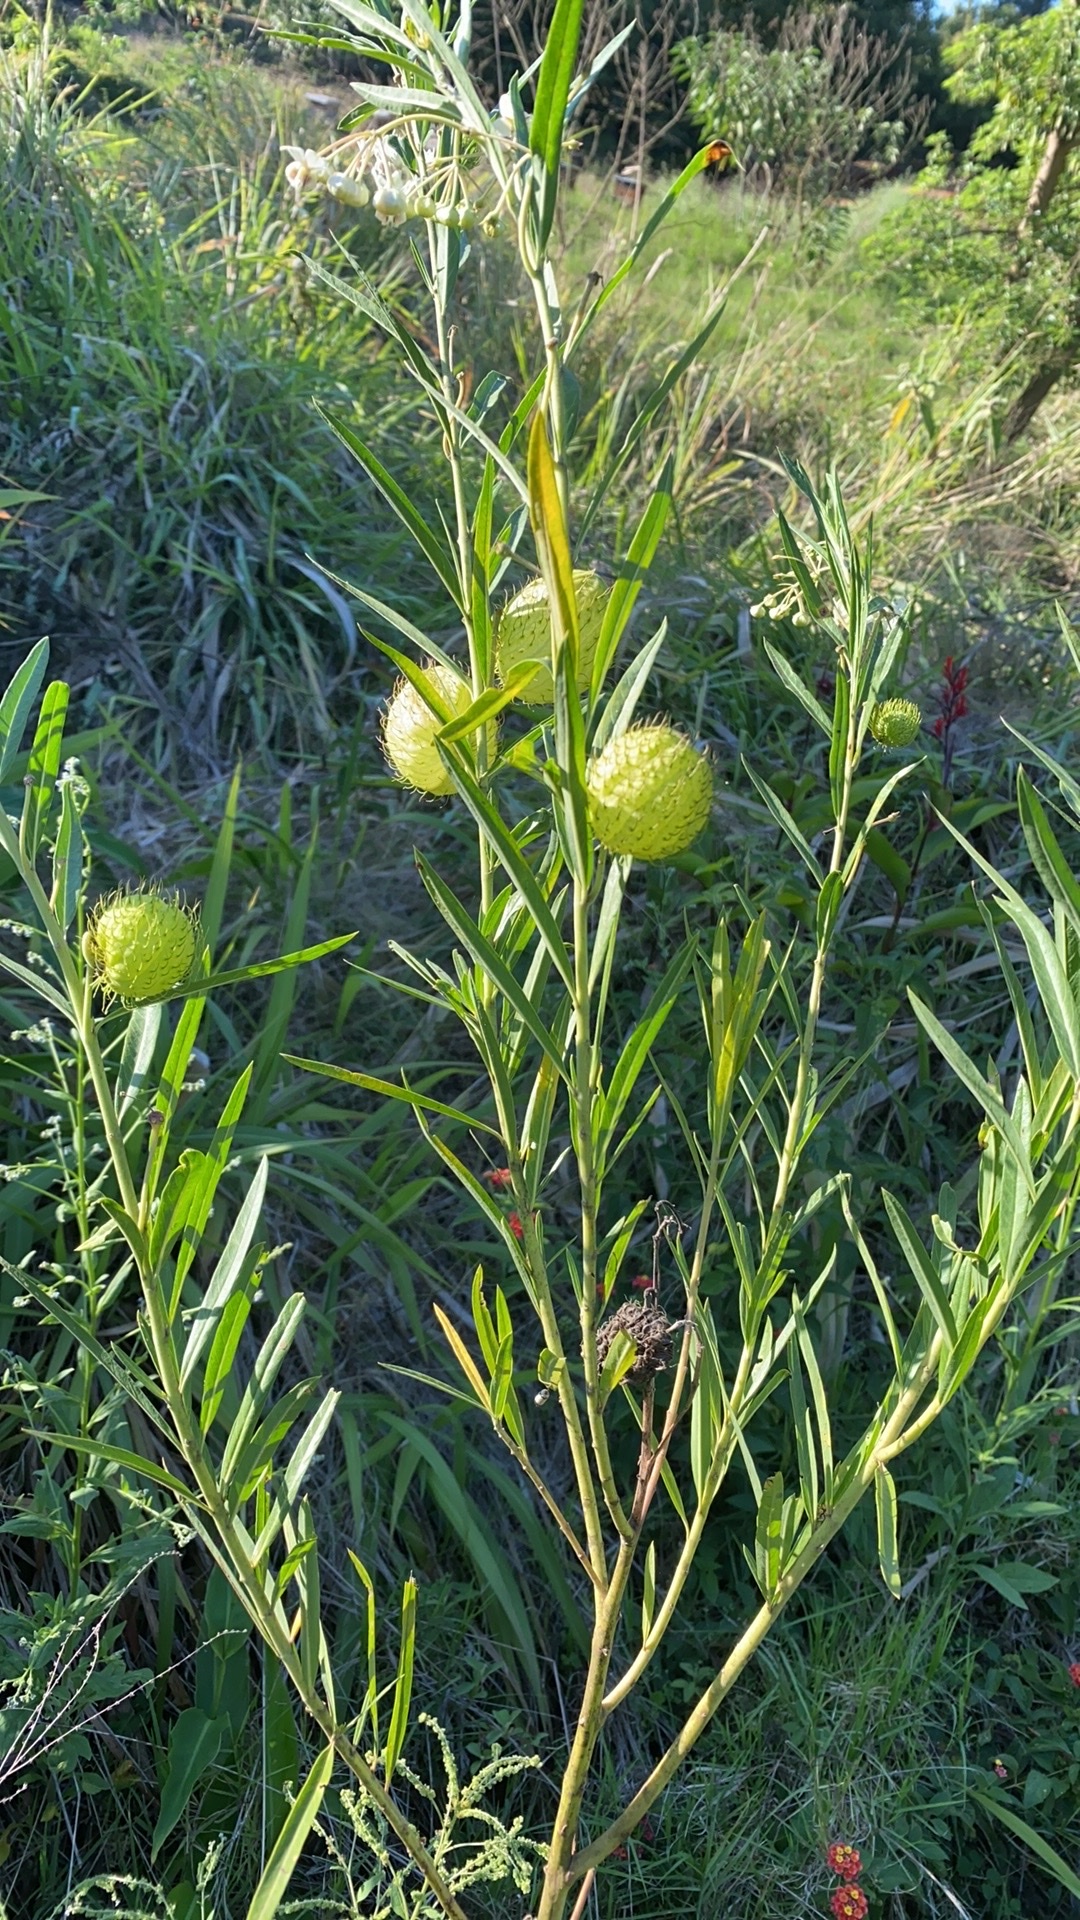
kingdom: Plantae
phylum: Tracheophyta
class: Magnoliopsida
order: Gentianales
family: Apocynaceae
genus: Gomphocarpus
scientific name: Gomphocarpus physocarpus
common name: Balloon cotton bush
